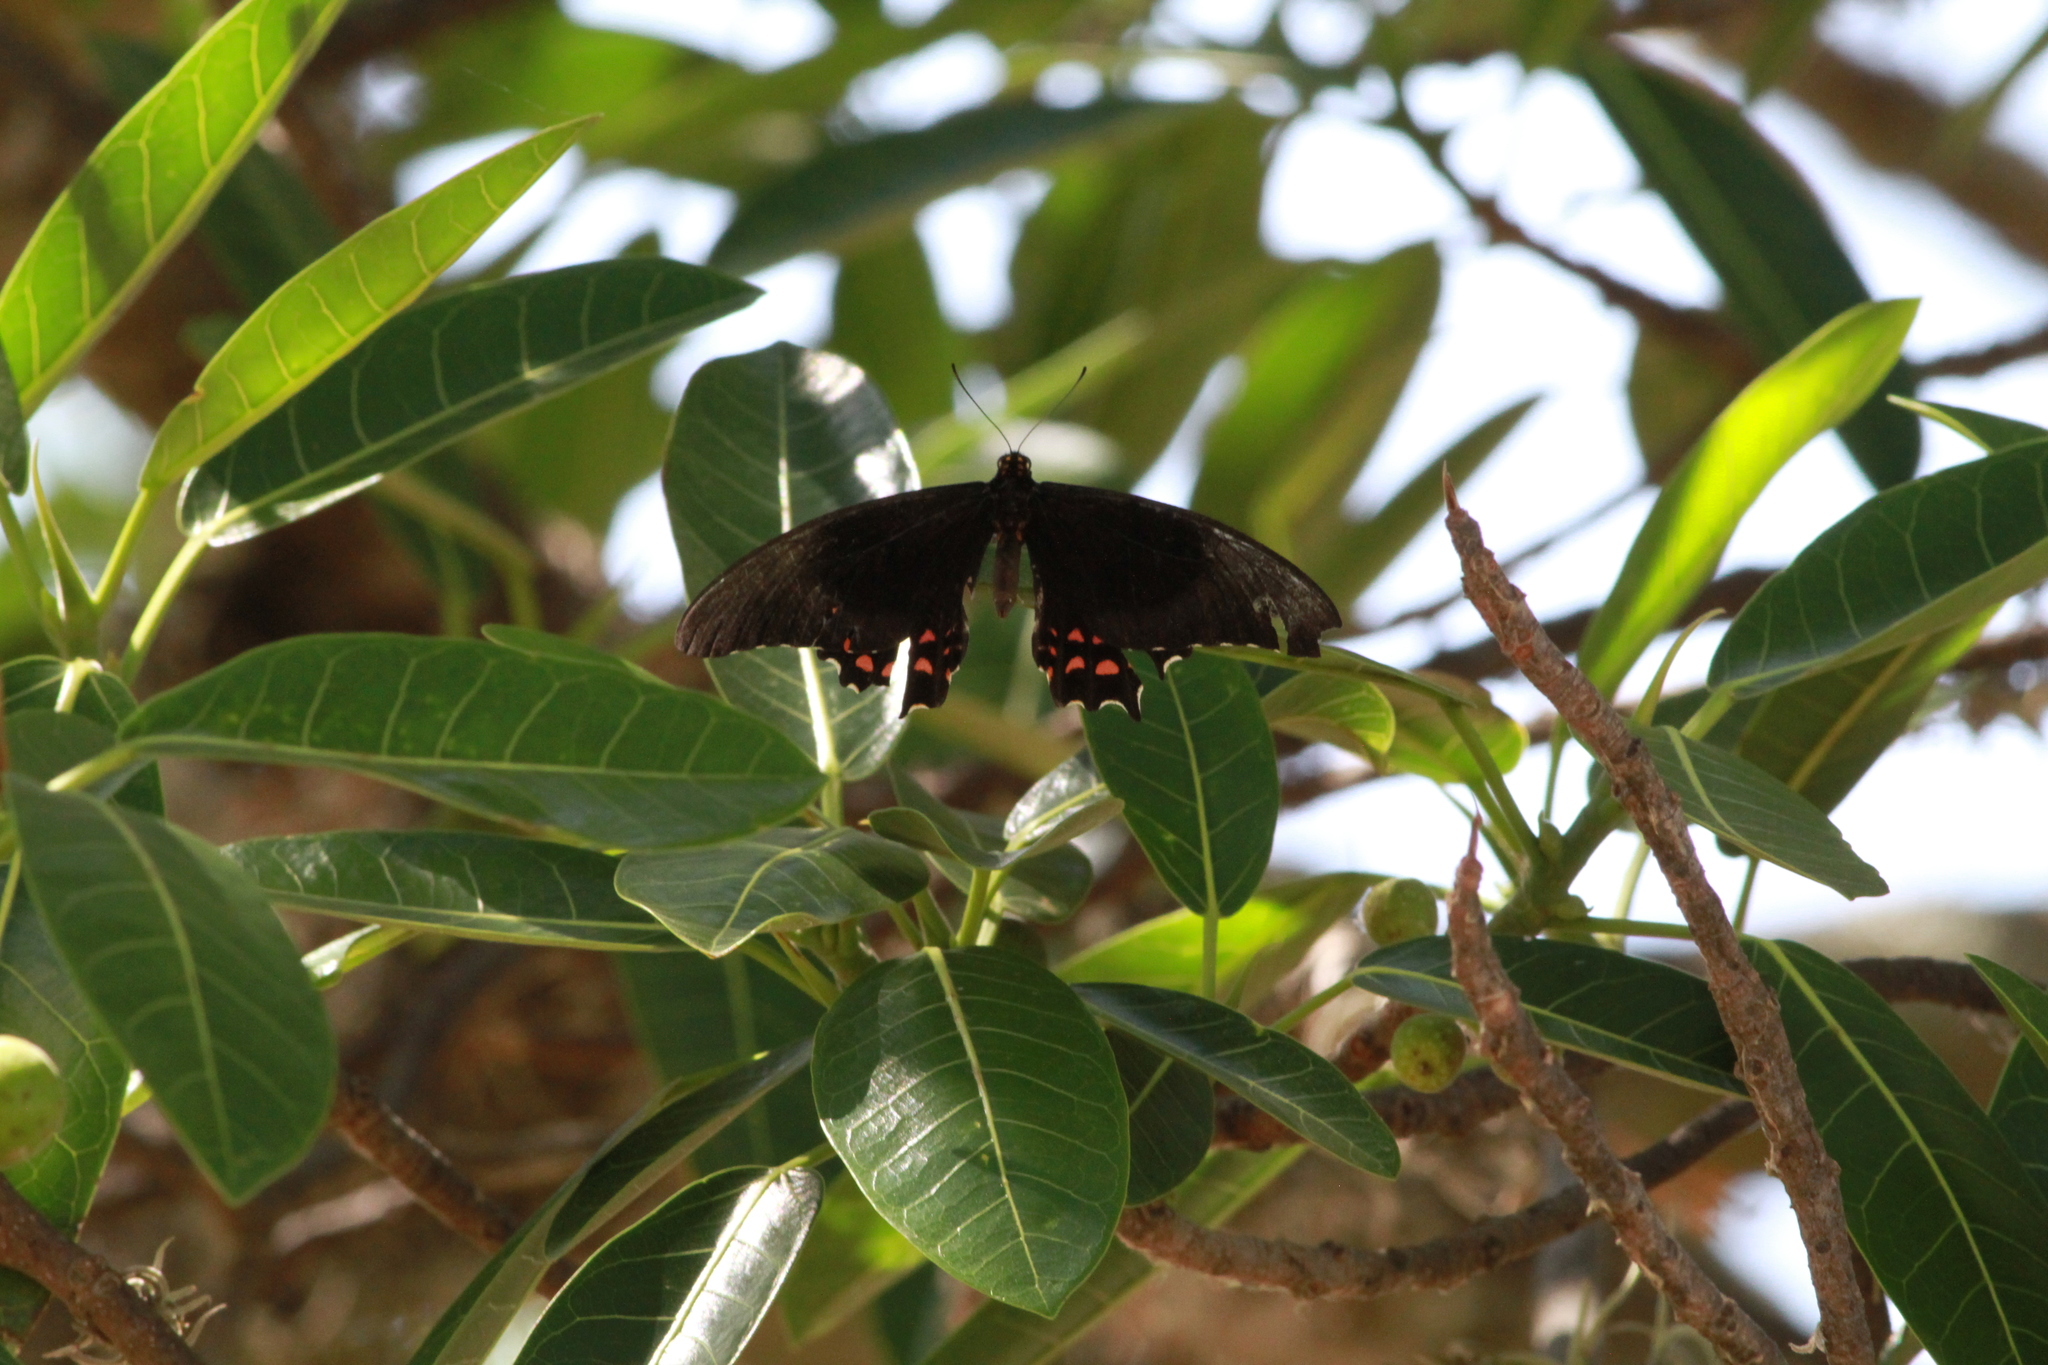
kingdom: Animalia
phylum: Arthropoda
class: Insecta
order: Lepidoptera
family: Papilionidae
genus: Heraclides
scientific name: Heraclides rogeri
